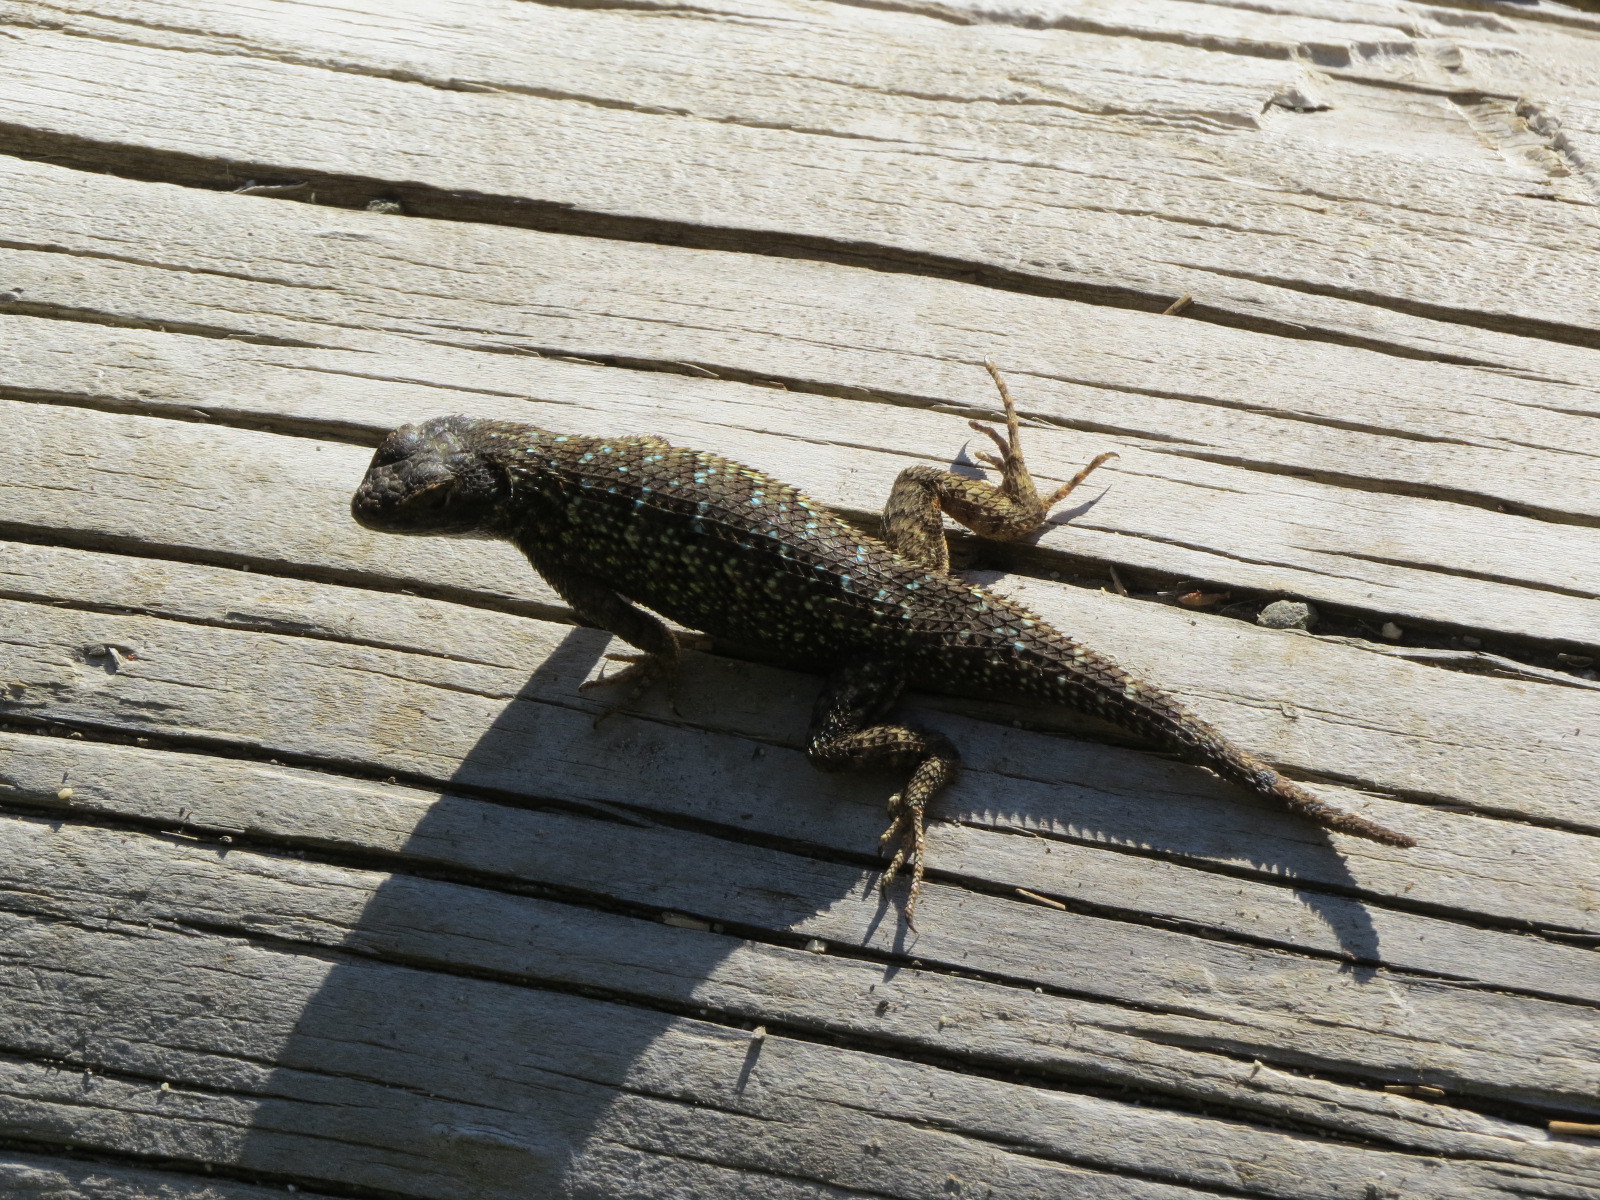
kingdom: Animalia
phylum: Chordata
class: Squamata
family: Phrynosomatidae
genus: Sceloporus
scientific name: Sceloporus occidentalis
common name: Western fence lizard
